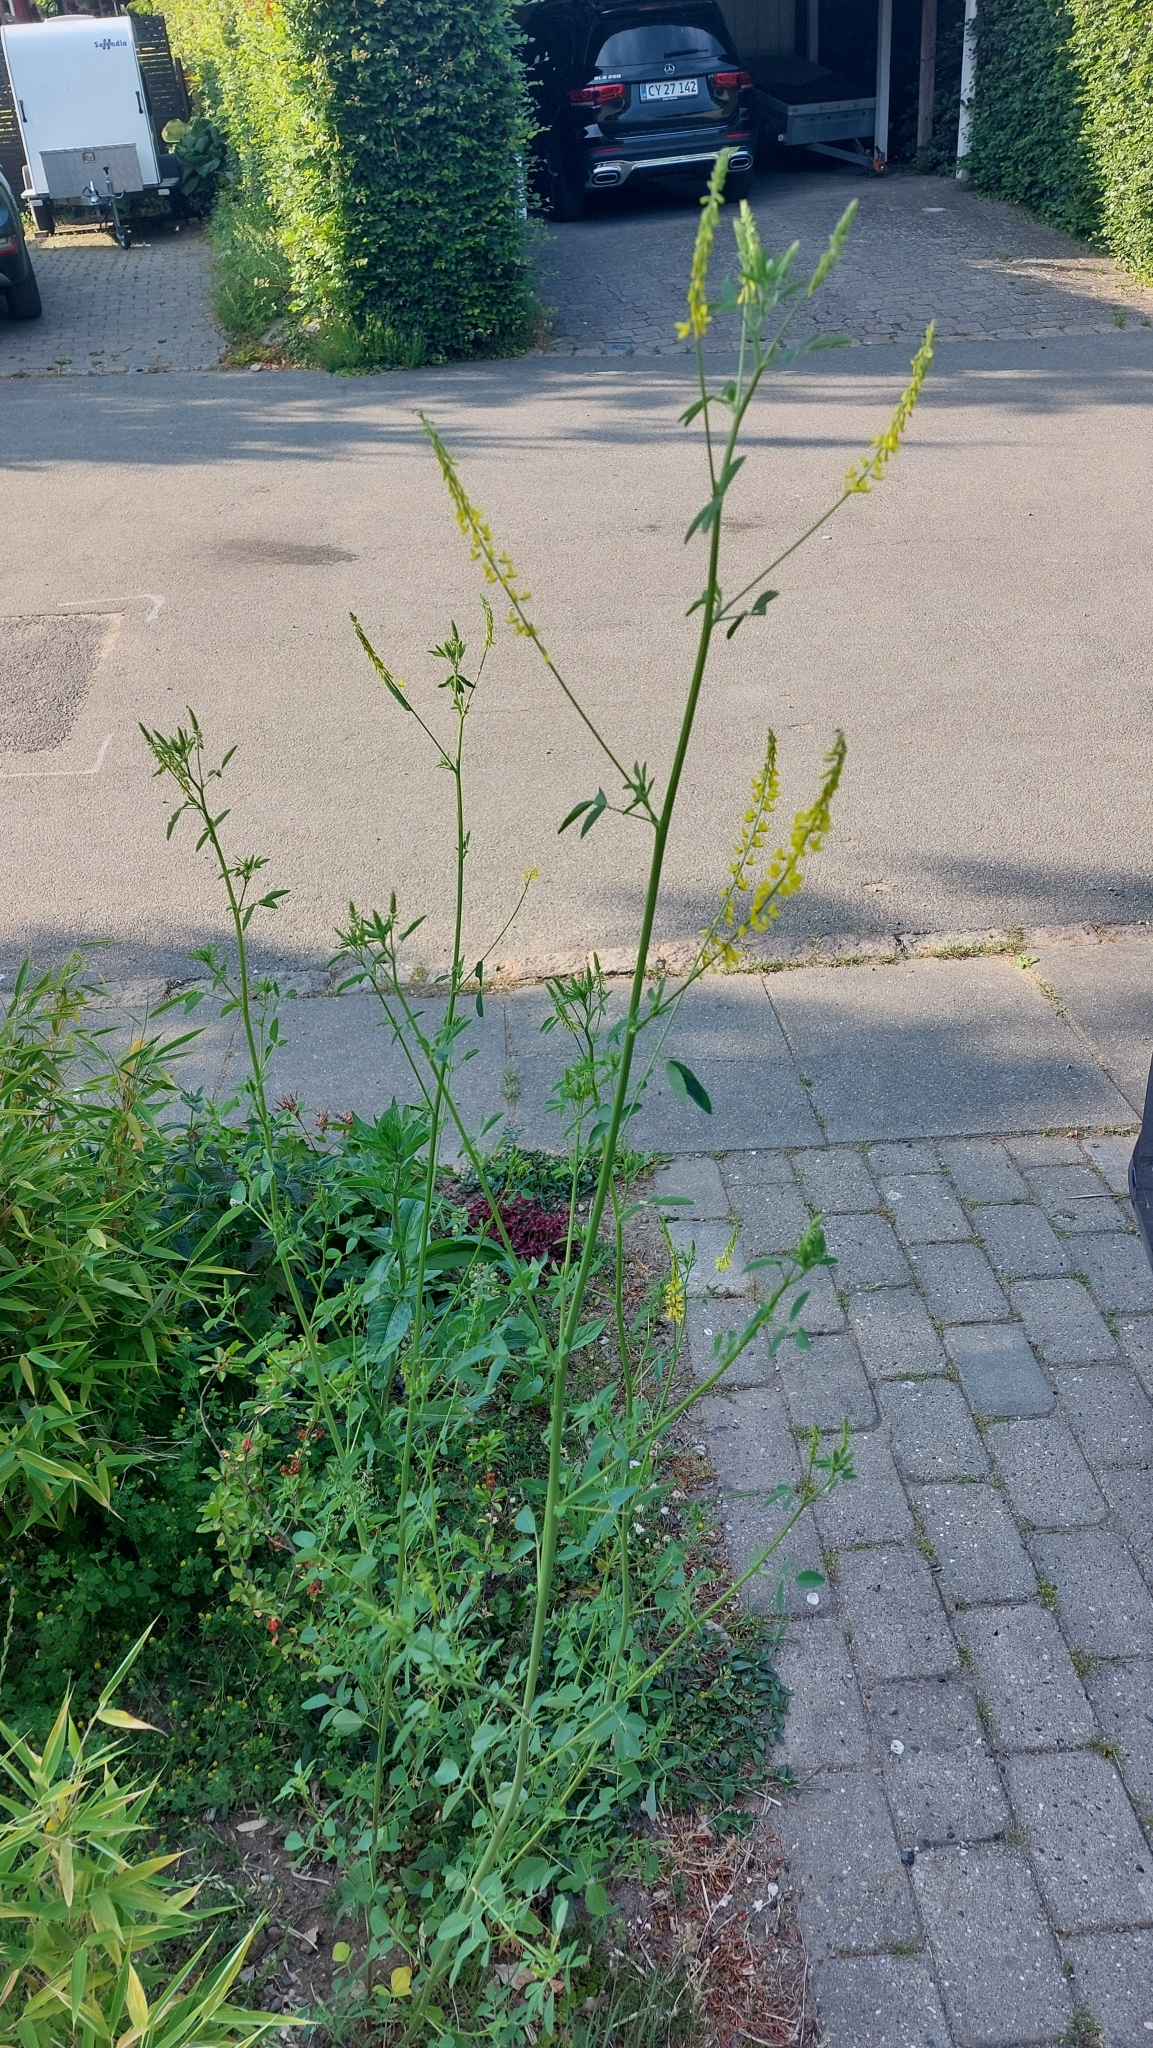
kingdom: Plantae
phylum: Tracheophyta
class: Magnoliopsida
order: Fabales
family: Fabaceae
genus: Melilotus
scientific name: Melilotus officinalis
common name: Sweetclover
